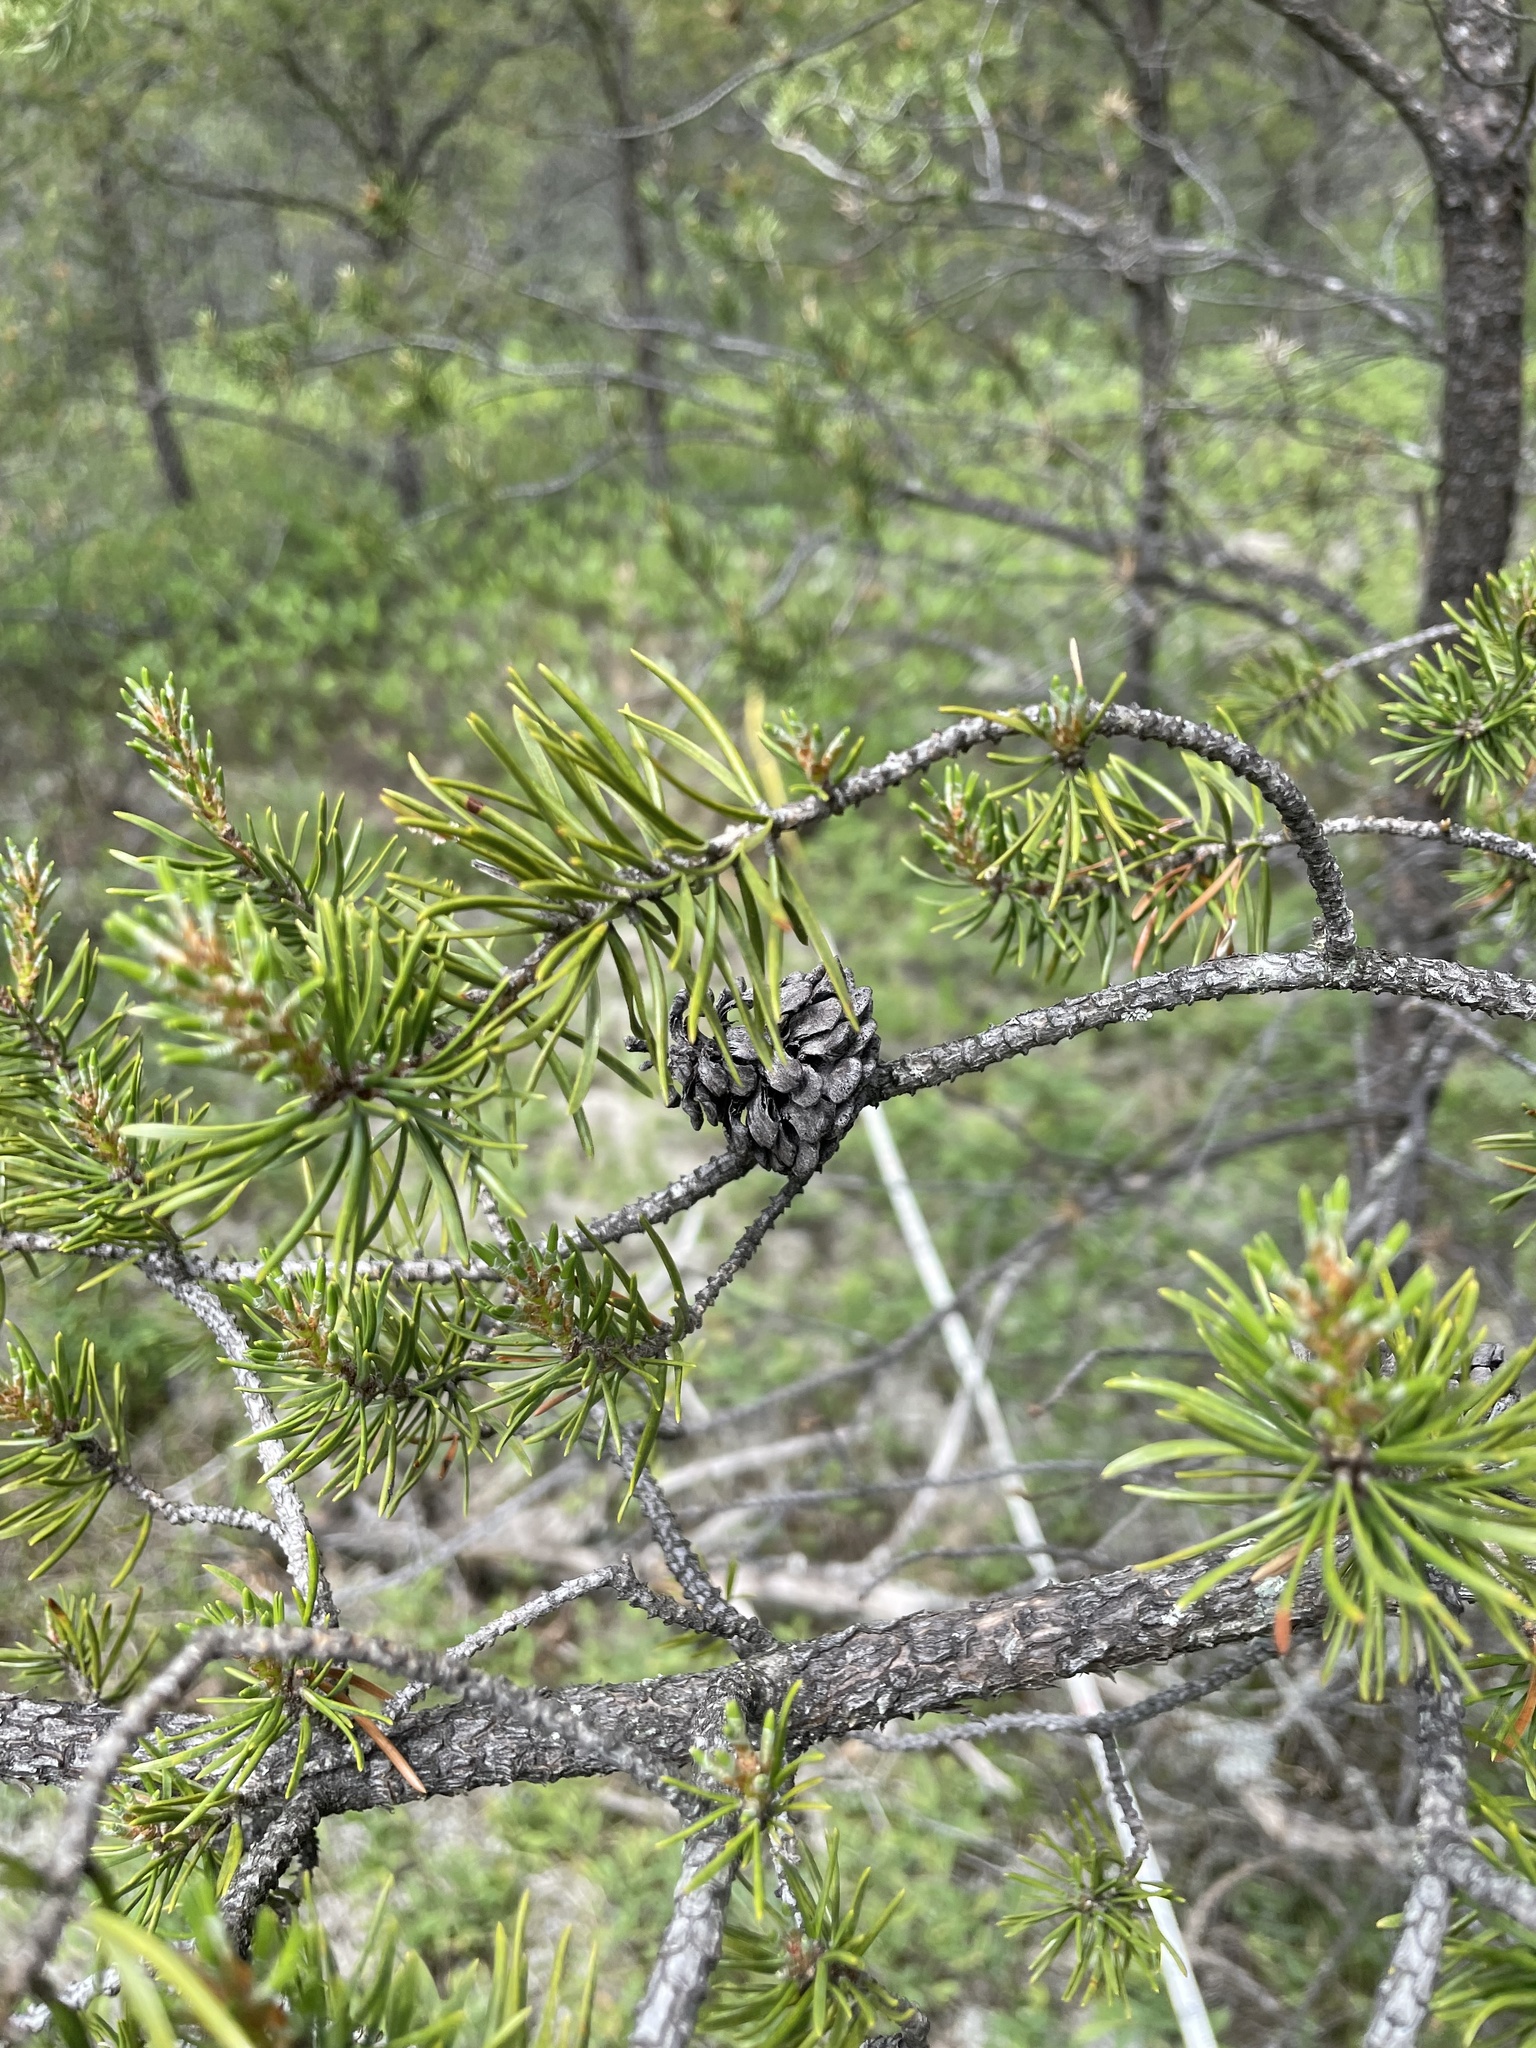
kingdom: Plantae
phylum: Tracheophyta
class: Pinopsida
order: Pinales
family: Pinaceae
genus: Pinus
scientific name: Pinus banksiana
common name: Jack pine
